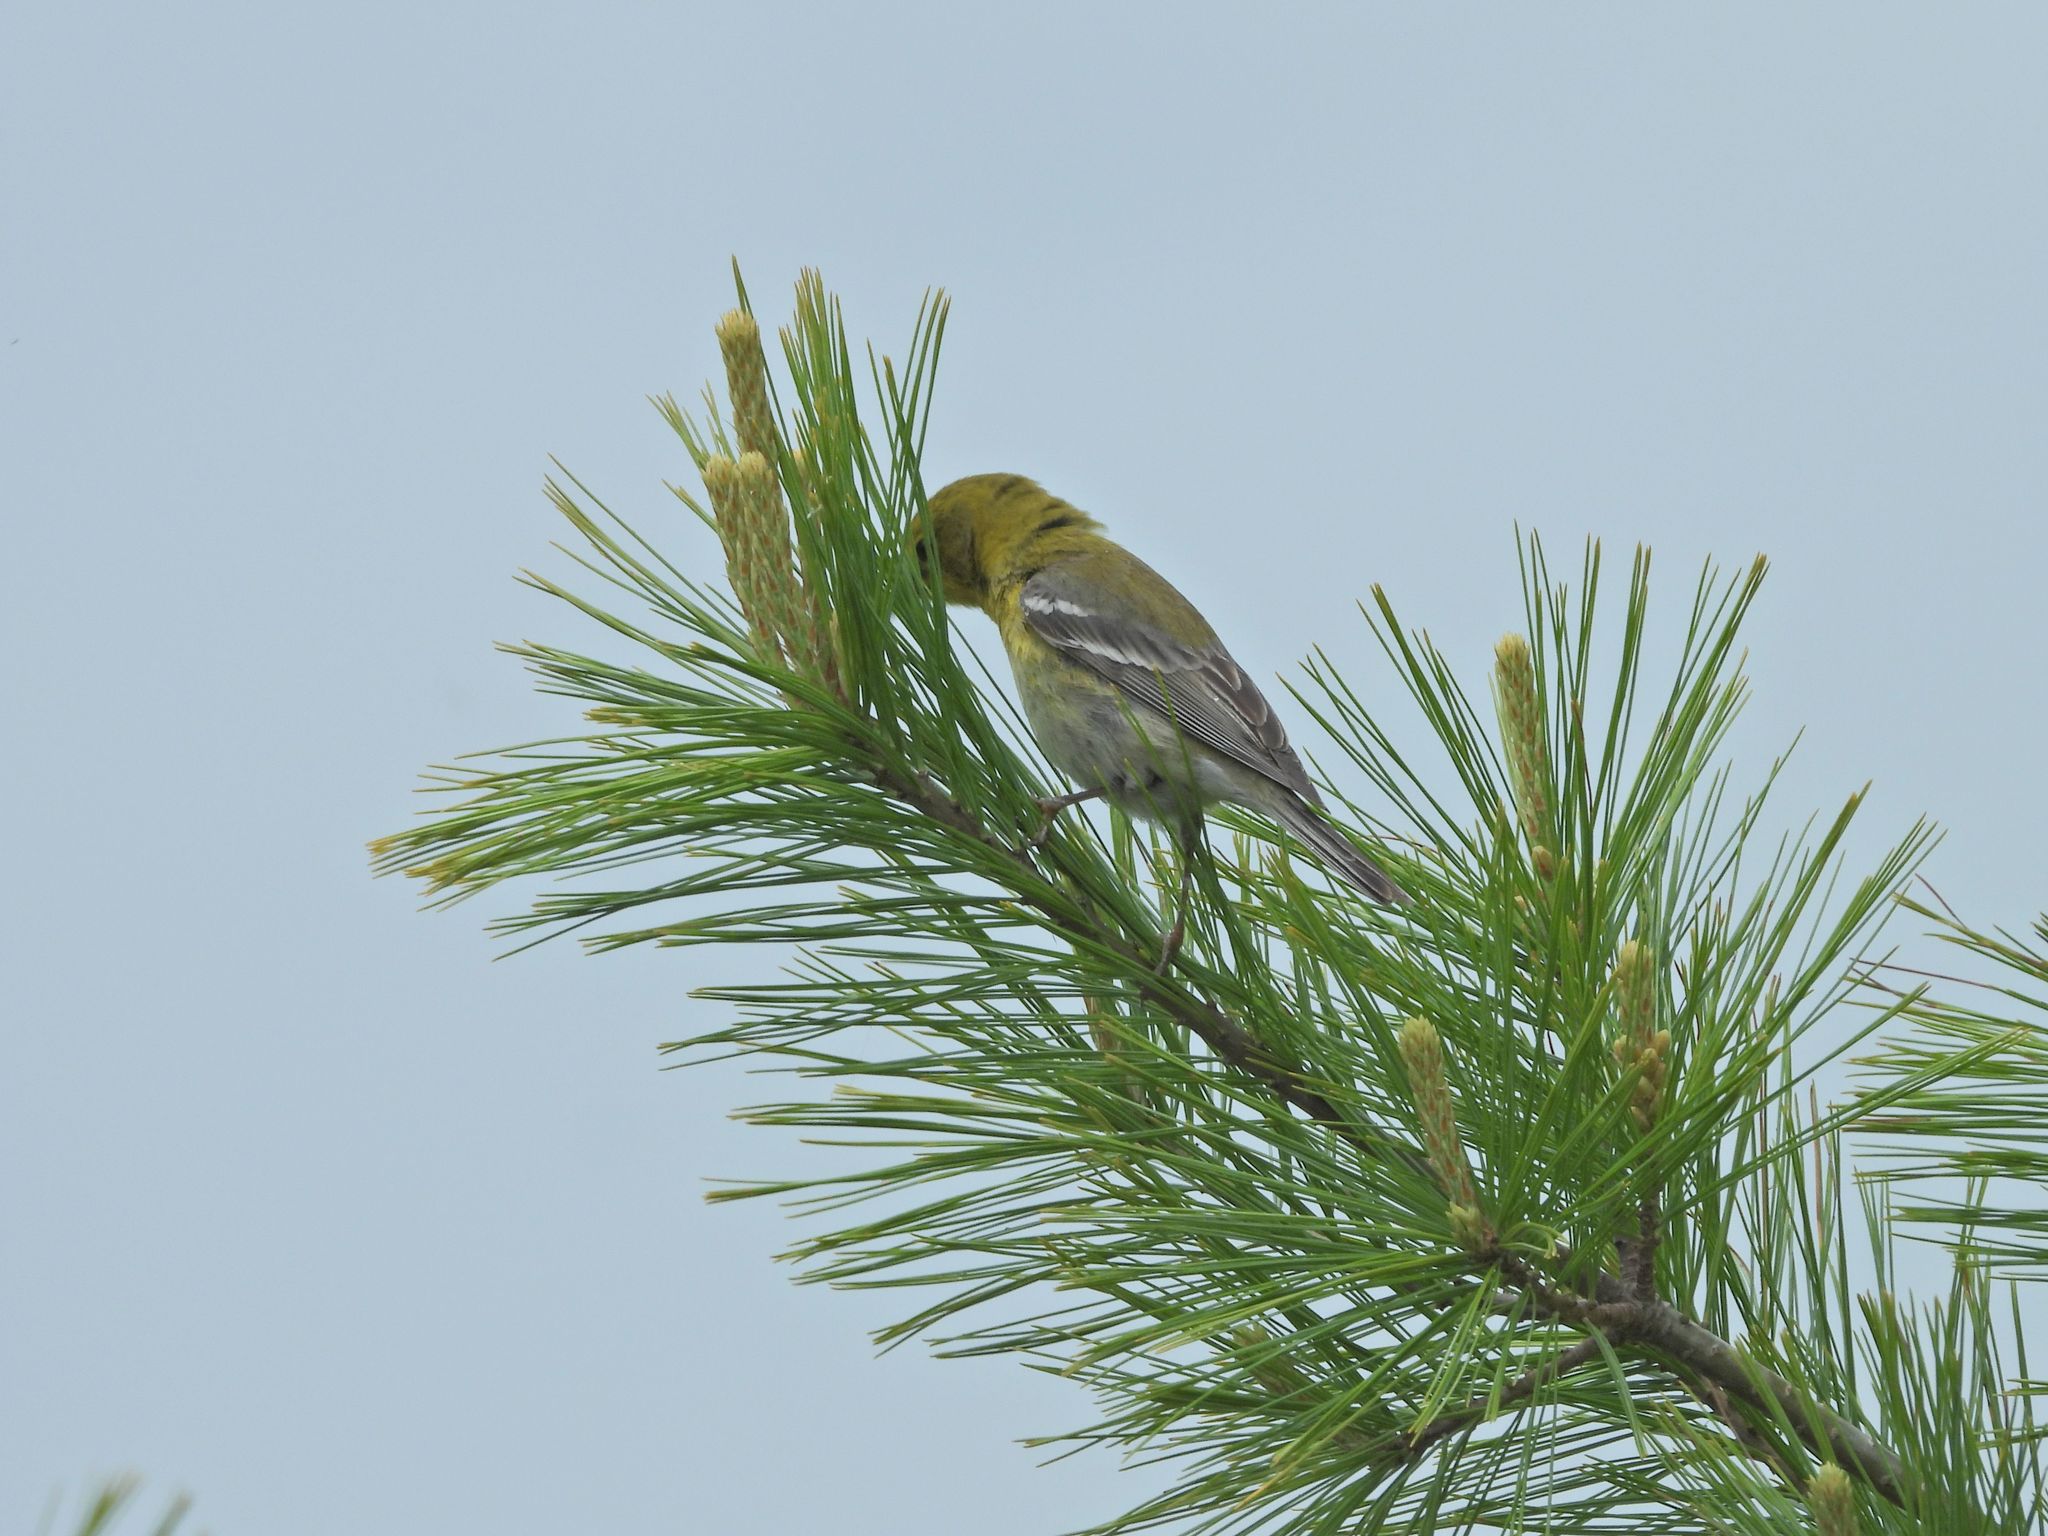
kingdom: Animalia
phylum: Chordata
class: Aves
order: Passeriformes
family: Parulidae
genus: Setophaga
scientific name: Setophaga pinus
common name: Pine warbler
